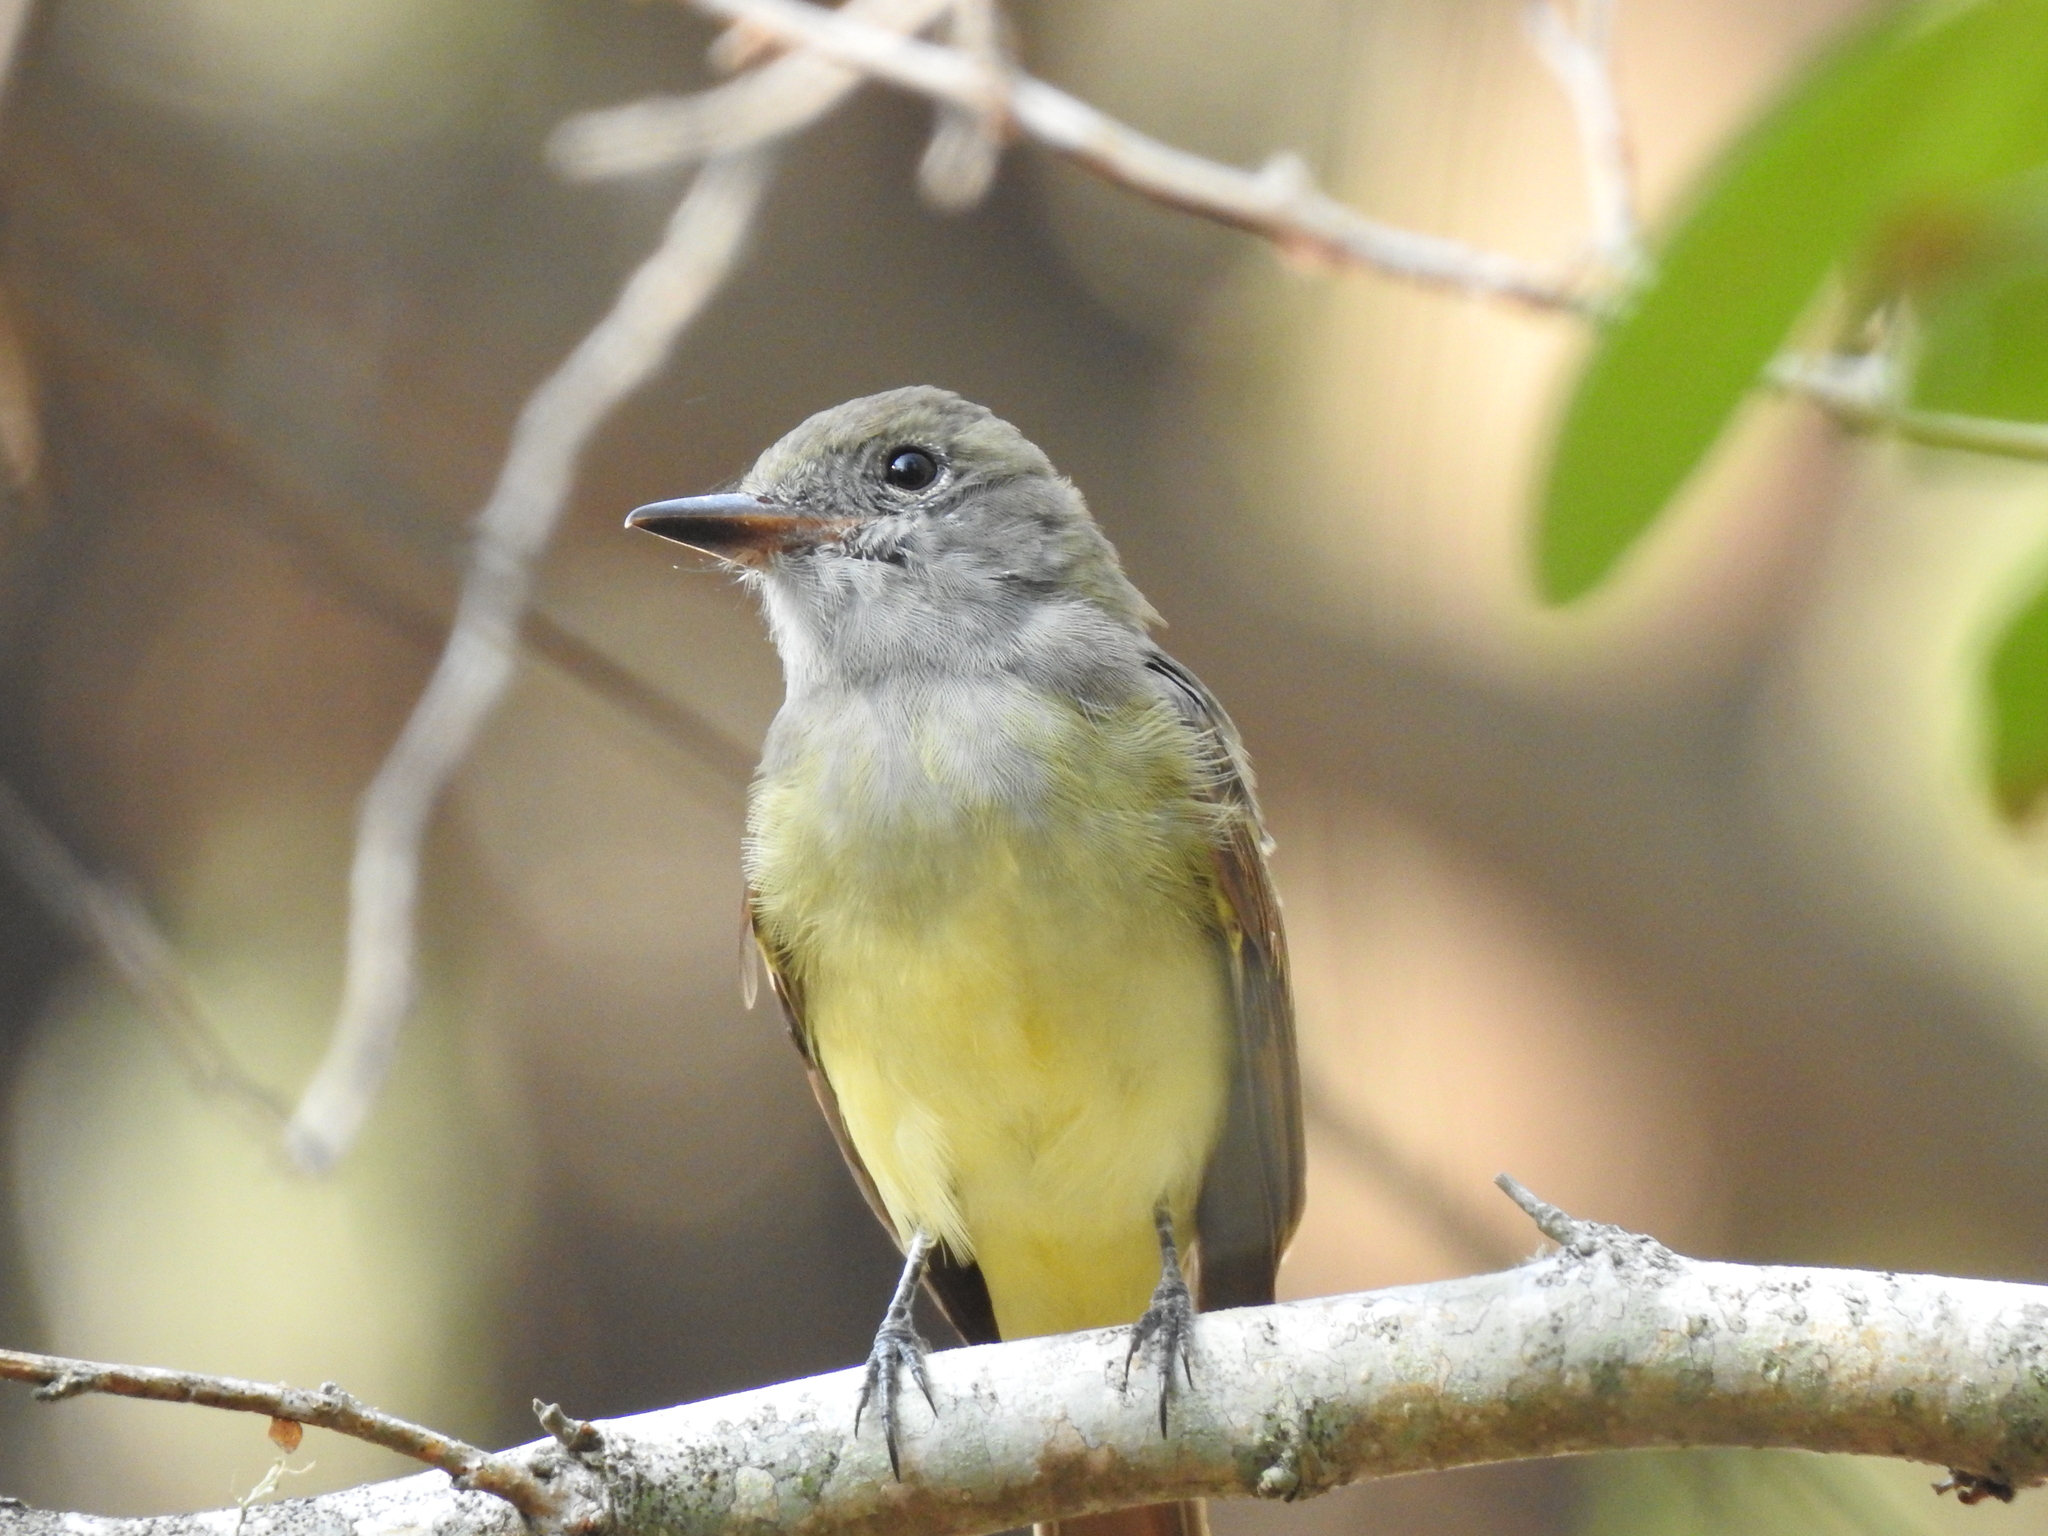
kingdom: Animalia
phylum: Chordata
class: Aves
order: Passeriformes
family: Tyrannidae
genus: Myiarchus
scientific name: Myiarchus crinitus
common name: Great crested flycatcher
